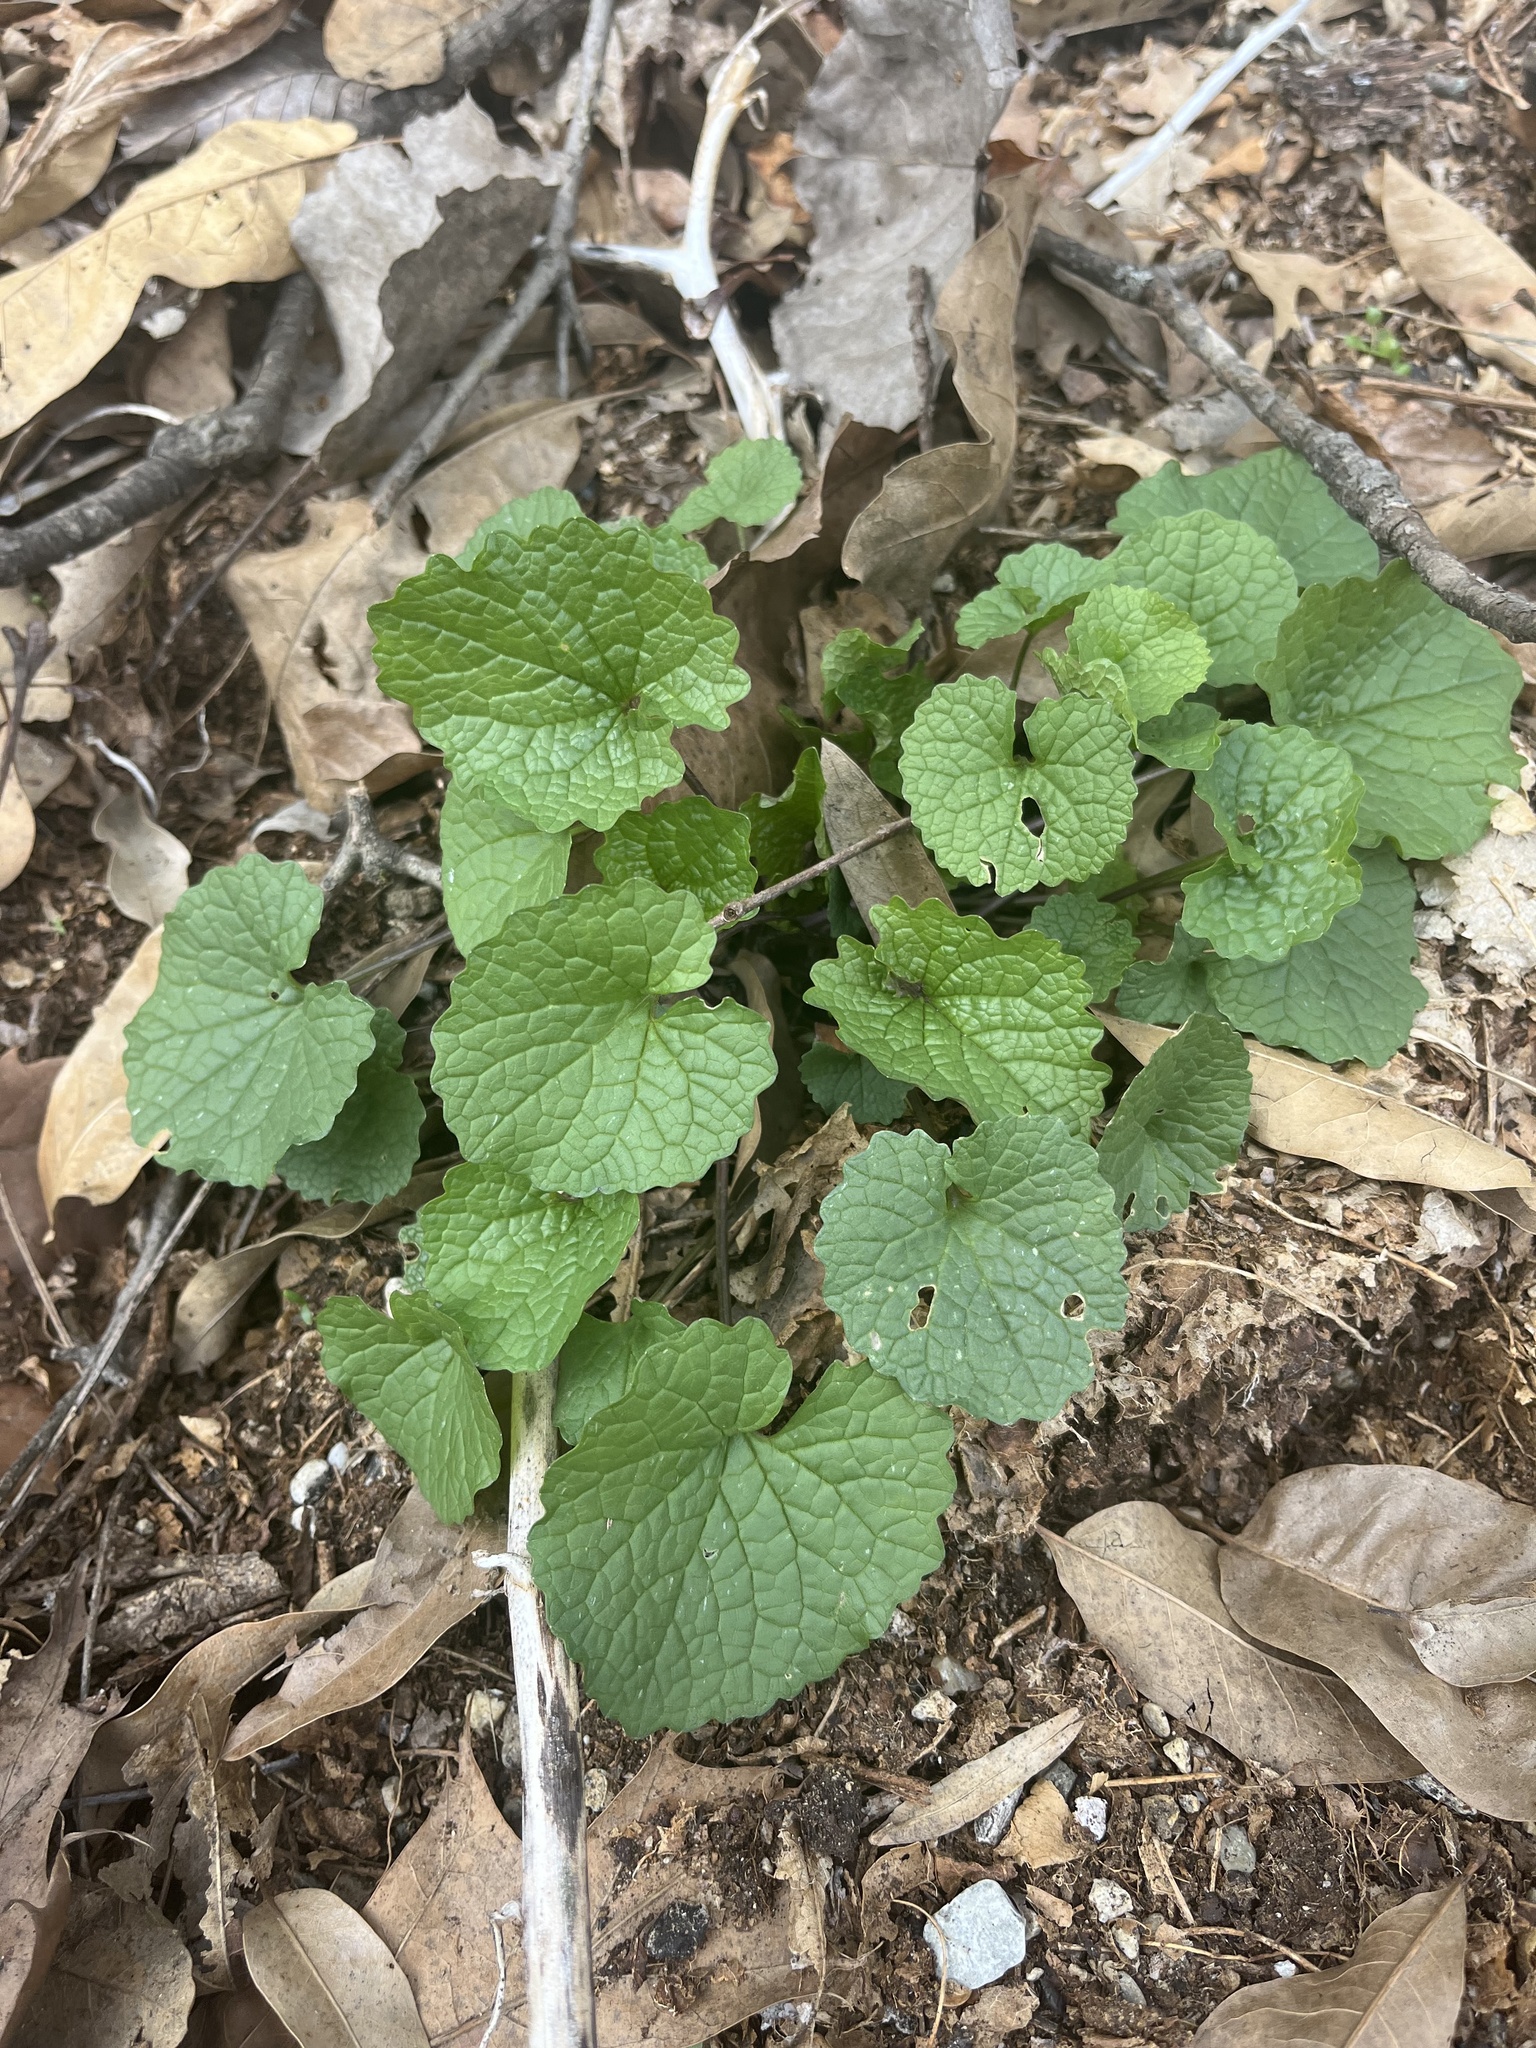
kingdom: Plantae
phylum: Tracheophyta
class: Magnoliopsida
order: Brassicales
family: Brassicaceae
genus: Alliaria
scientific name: Alliaria petiolata
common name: Garlic mustard
